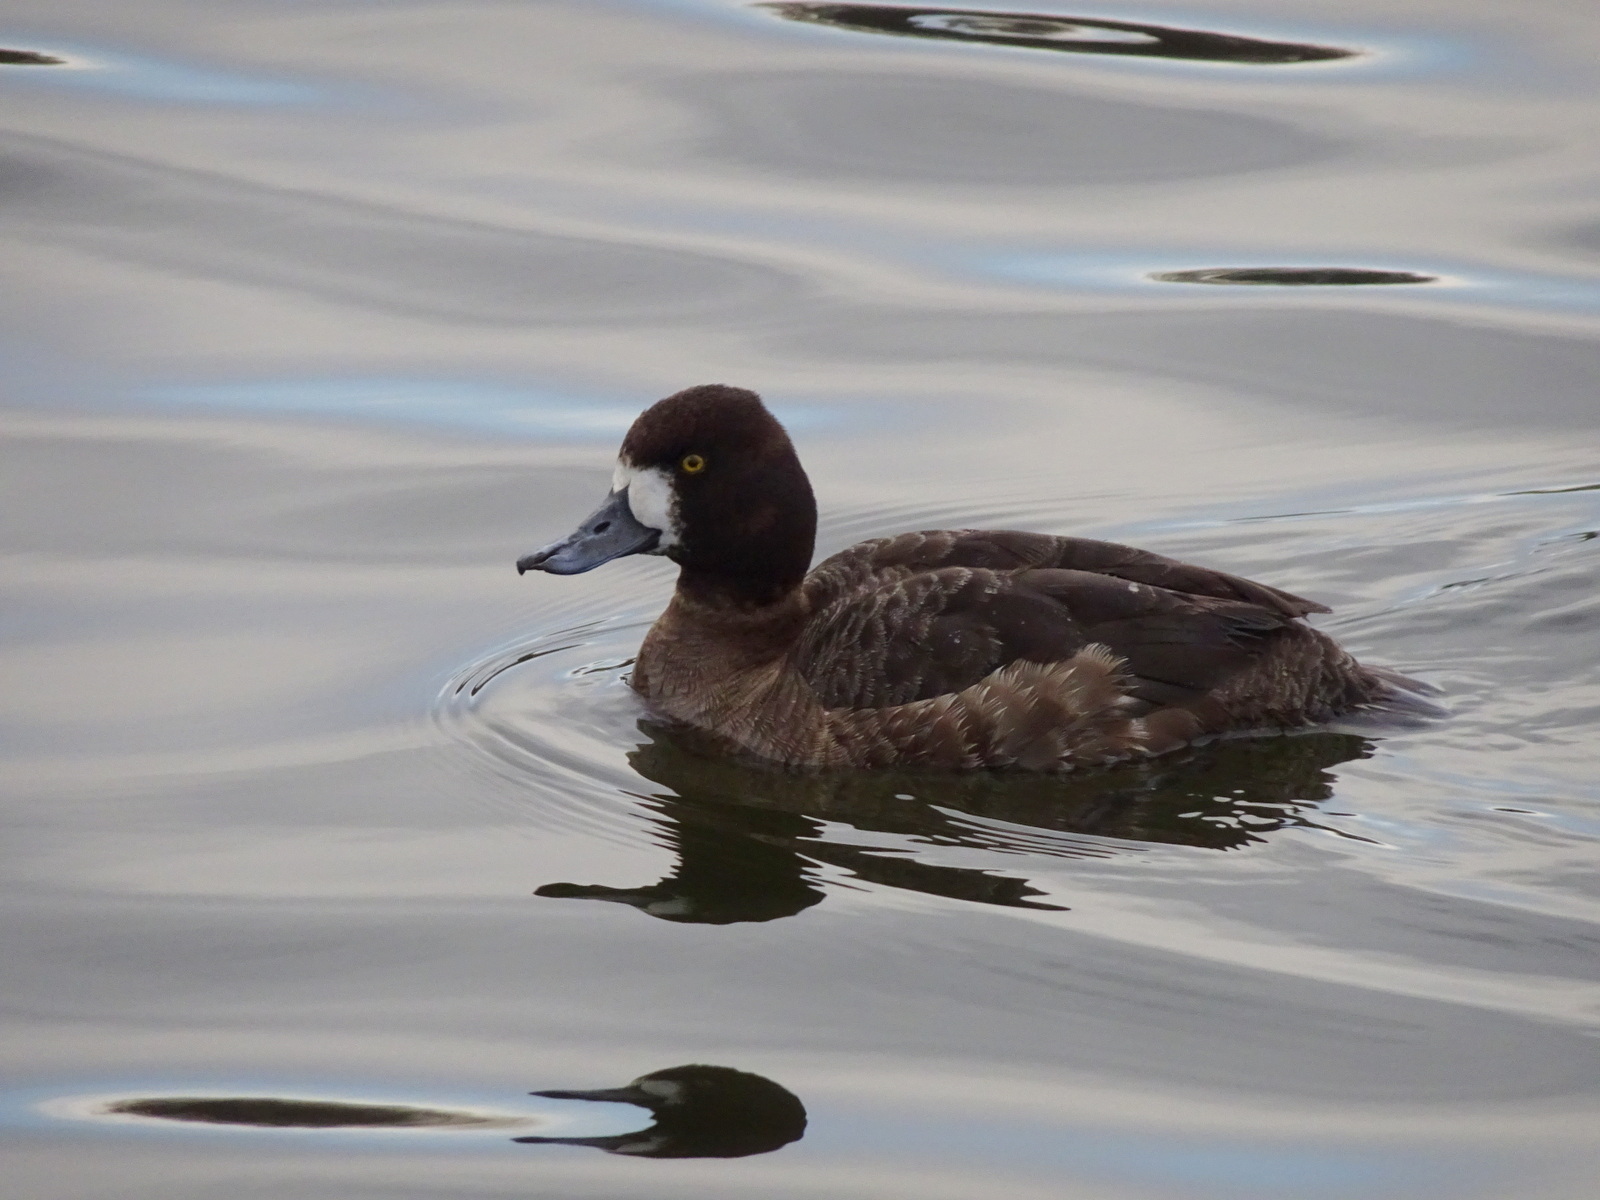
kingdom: Animalia
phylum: Chordata
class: Aves
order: Anseriformes
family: Anatidae
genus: Aythya
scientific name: Aythya affinis
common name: Lesser scaup
